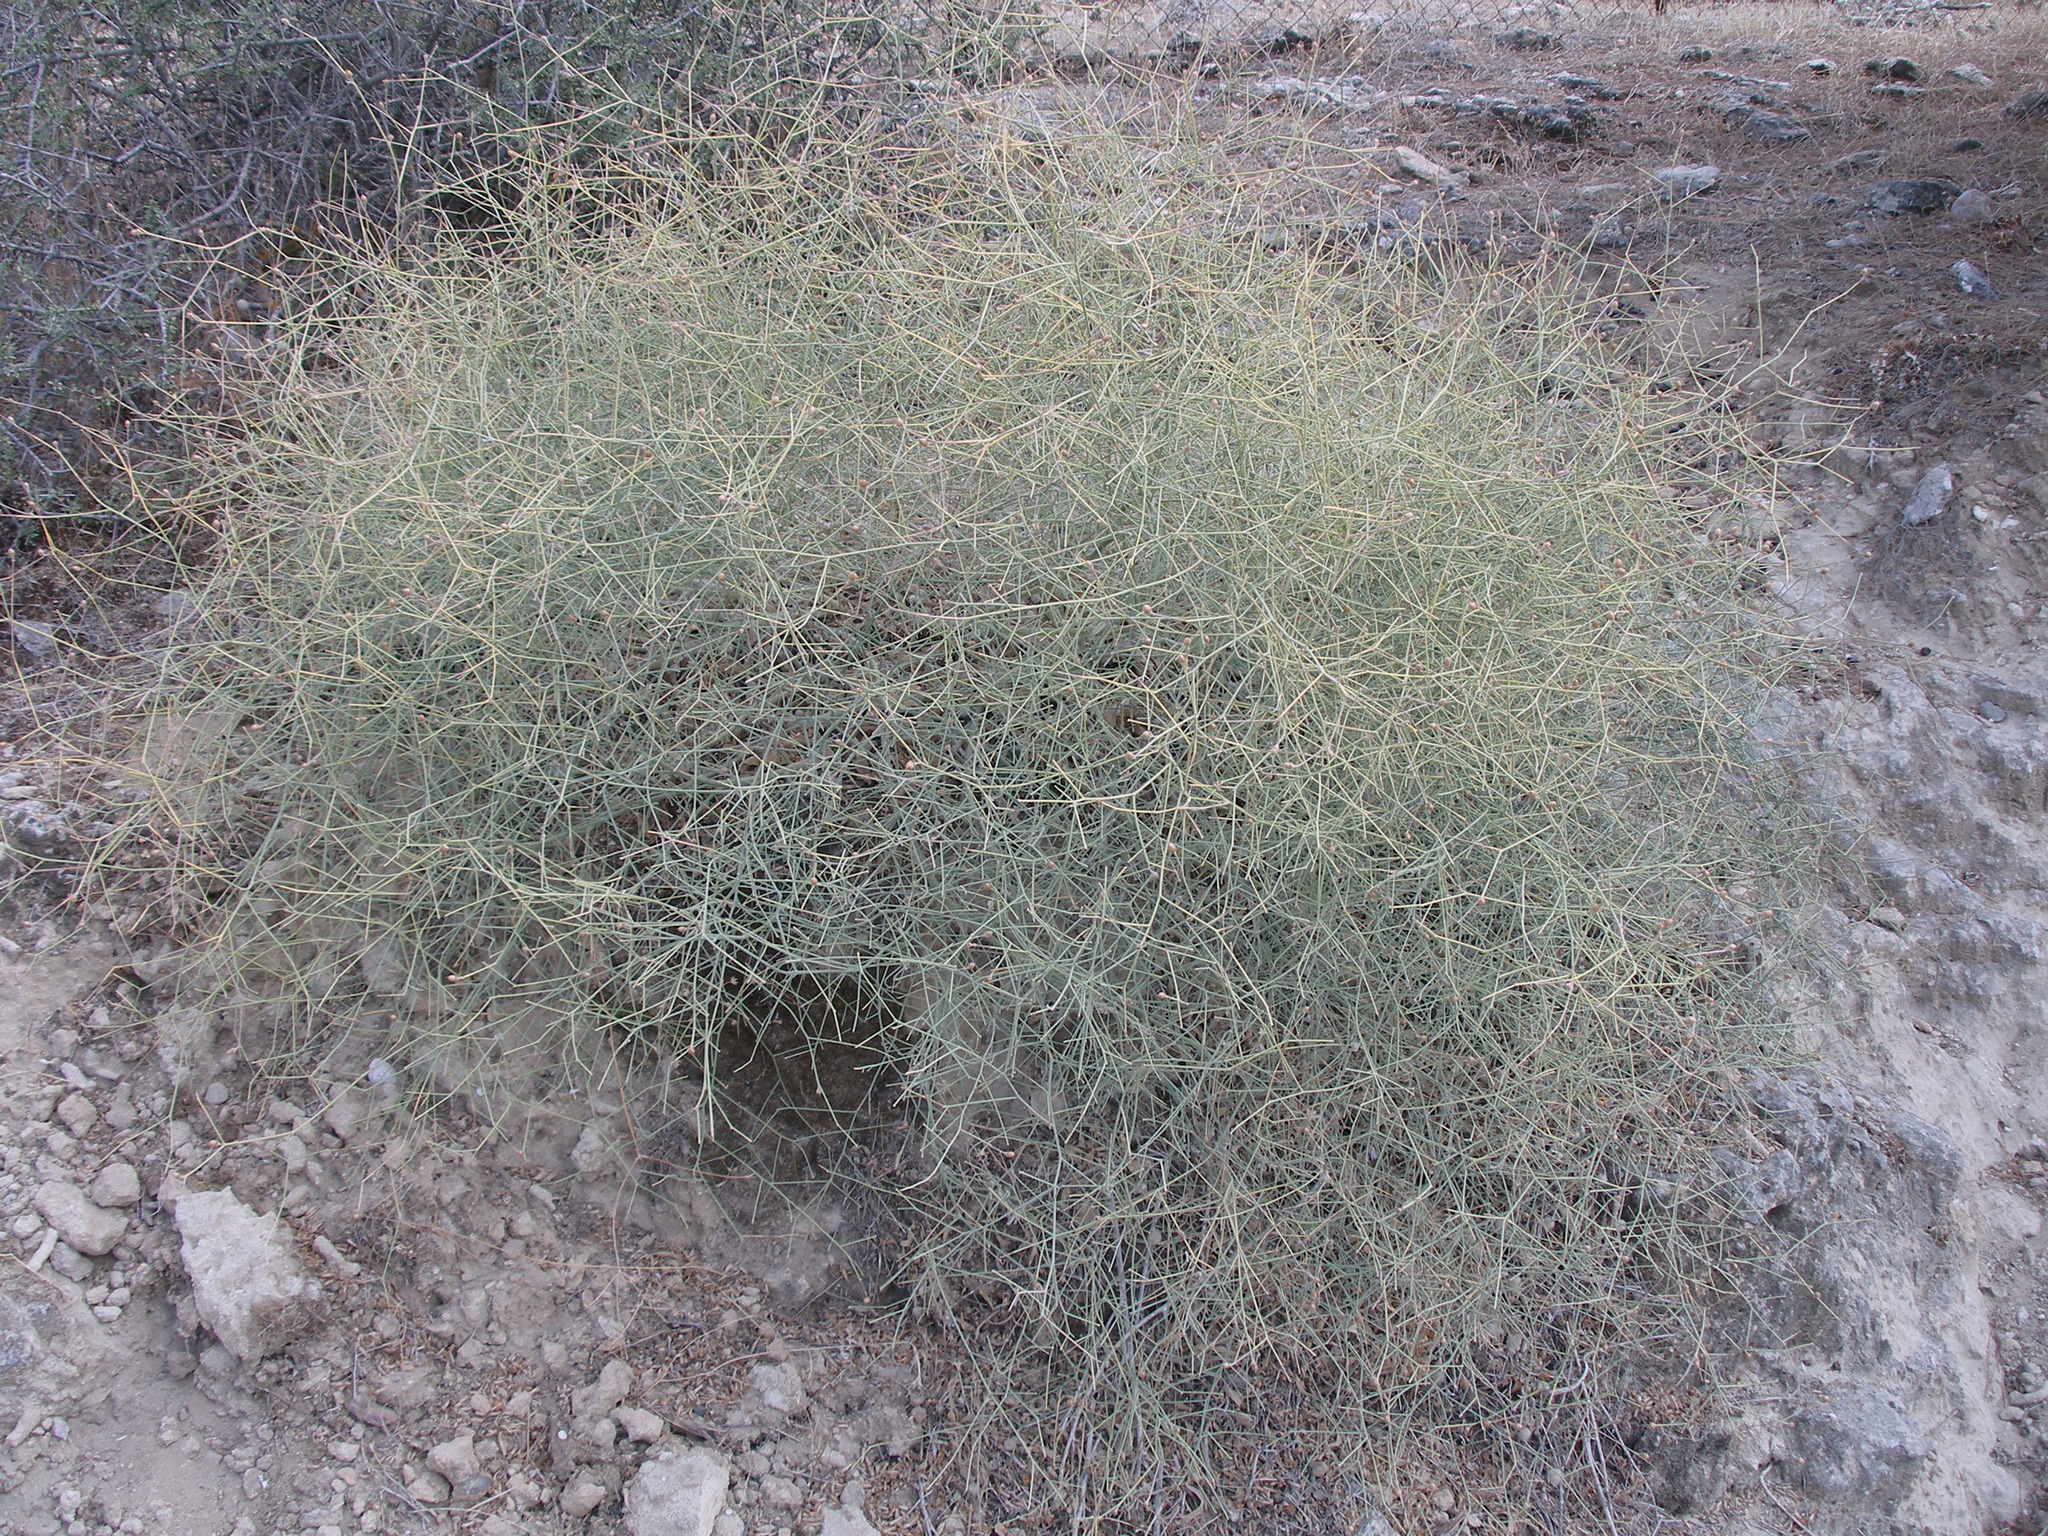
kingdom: Plantae
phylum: Tracheophyta
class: Magnoliopsida
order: Solanales
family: Convolvulaceae
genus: Convolvulus
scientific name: Convolvulus dorycnium
